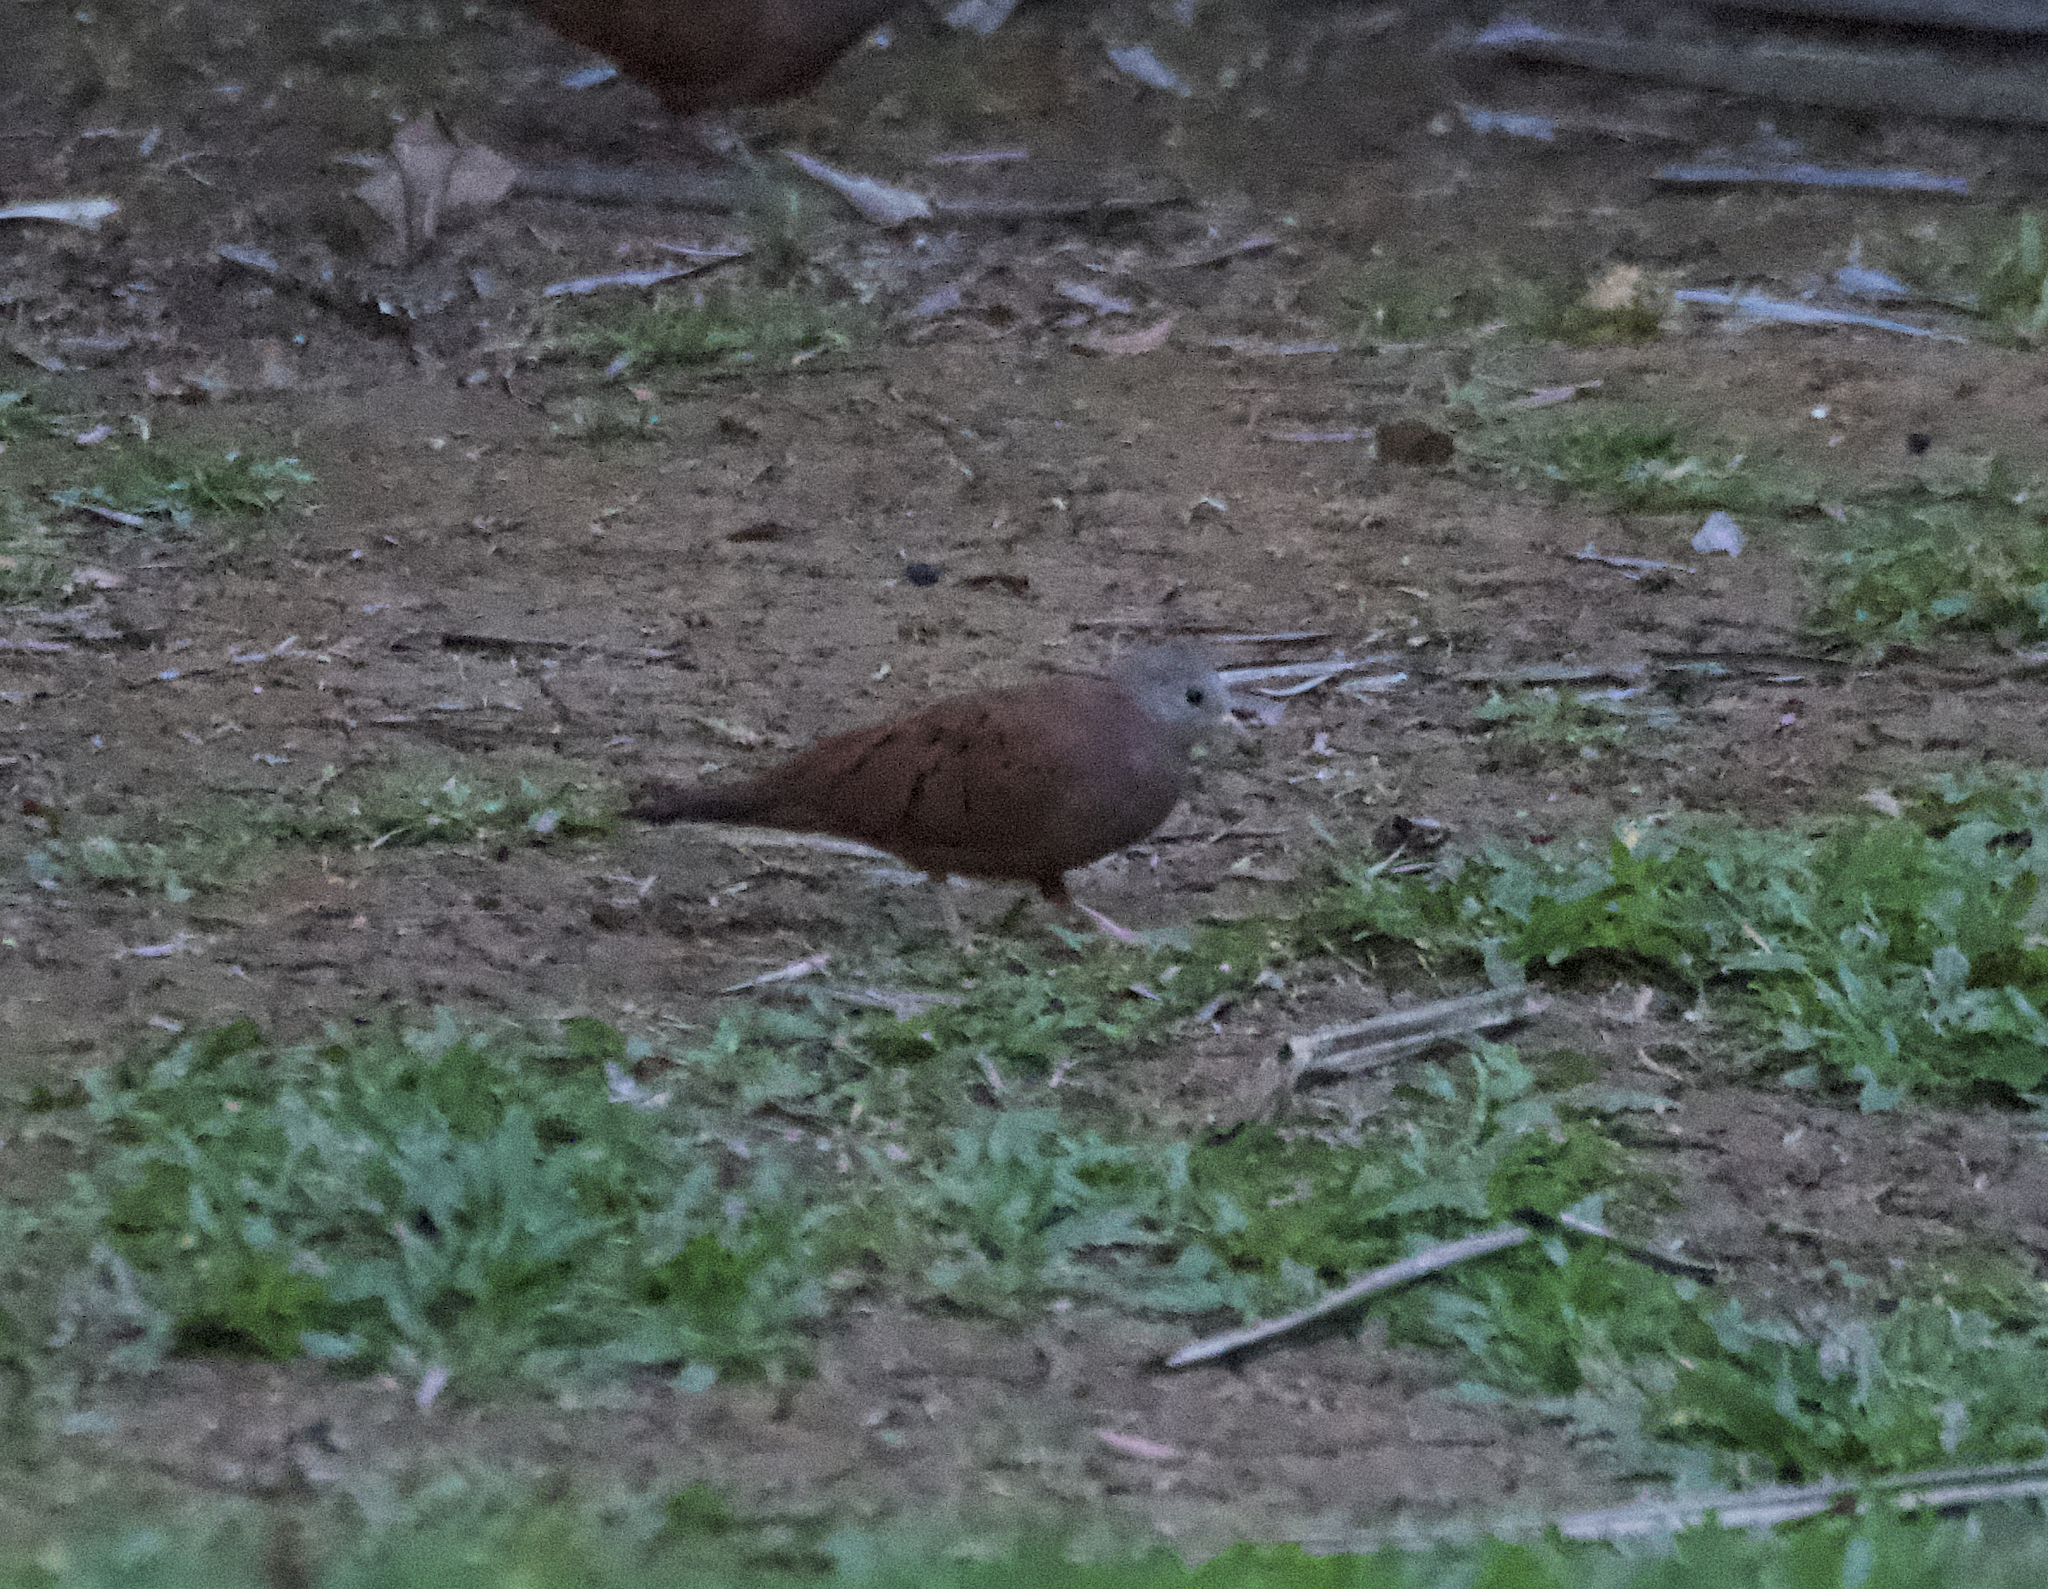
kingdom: Animalia
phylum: Chordata
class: Aves
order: Columbiformes
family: Columbidae
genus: Columbina
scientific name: Columbina talpacoti
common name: Ruddy ground dove
